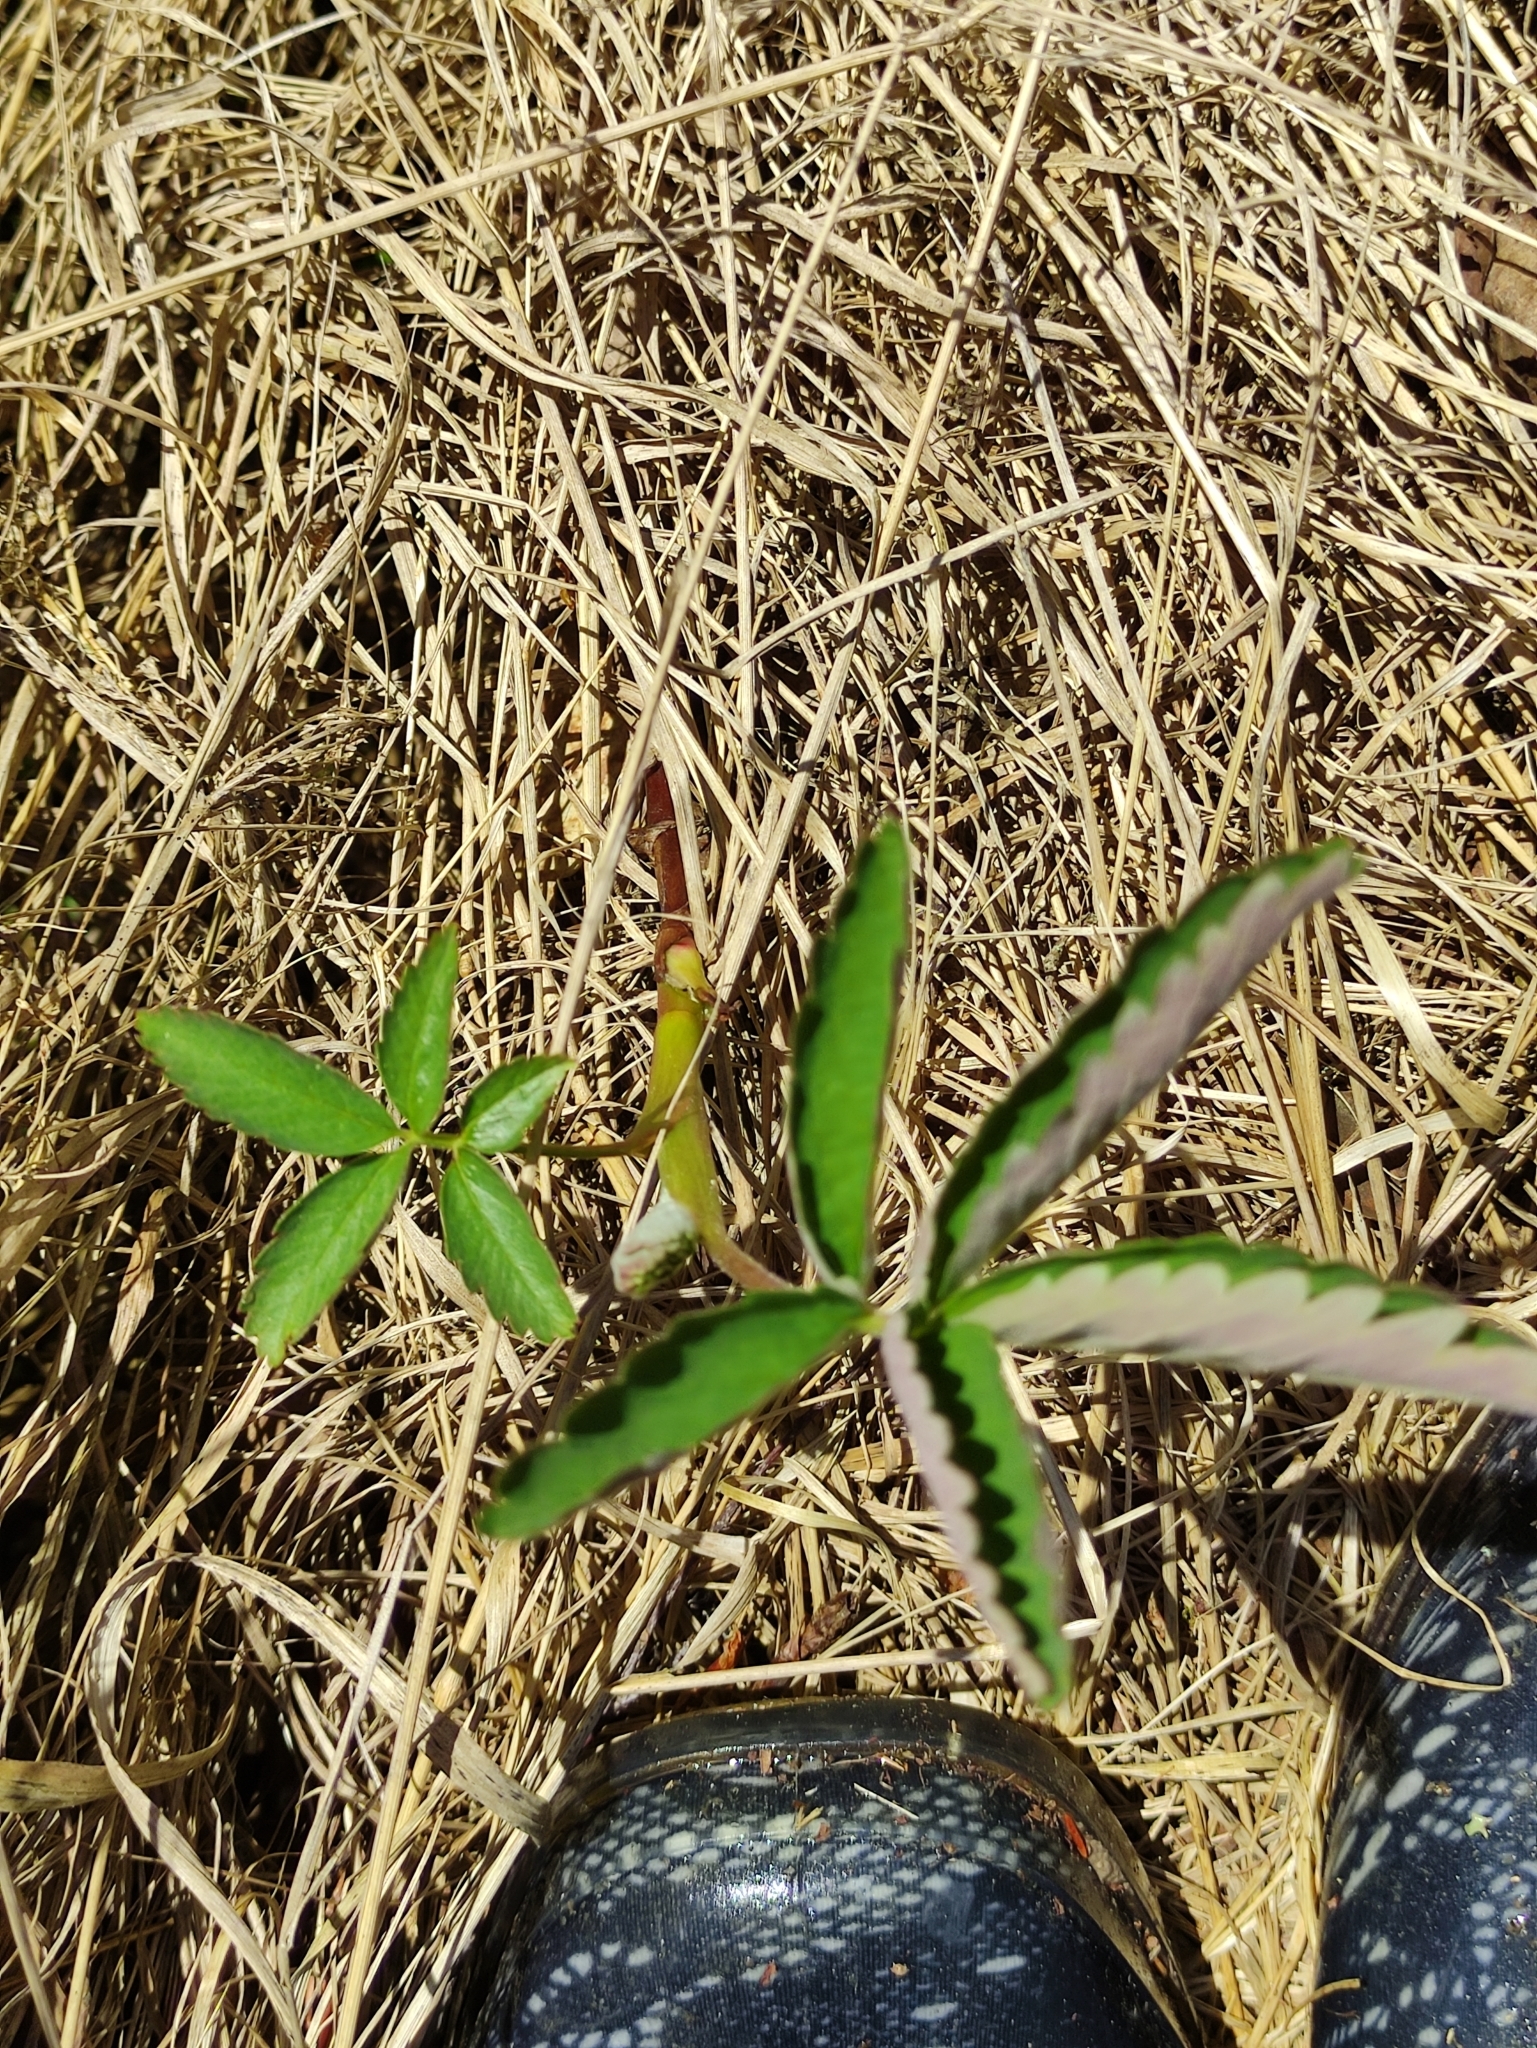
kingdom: Plantae
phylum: Tracheophyta
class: Magnoliopsida
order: Rosales
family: Rosaceae
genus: Comarum
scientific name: Comarum palustre
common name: Marsh cinquefoil
